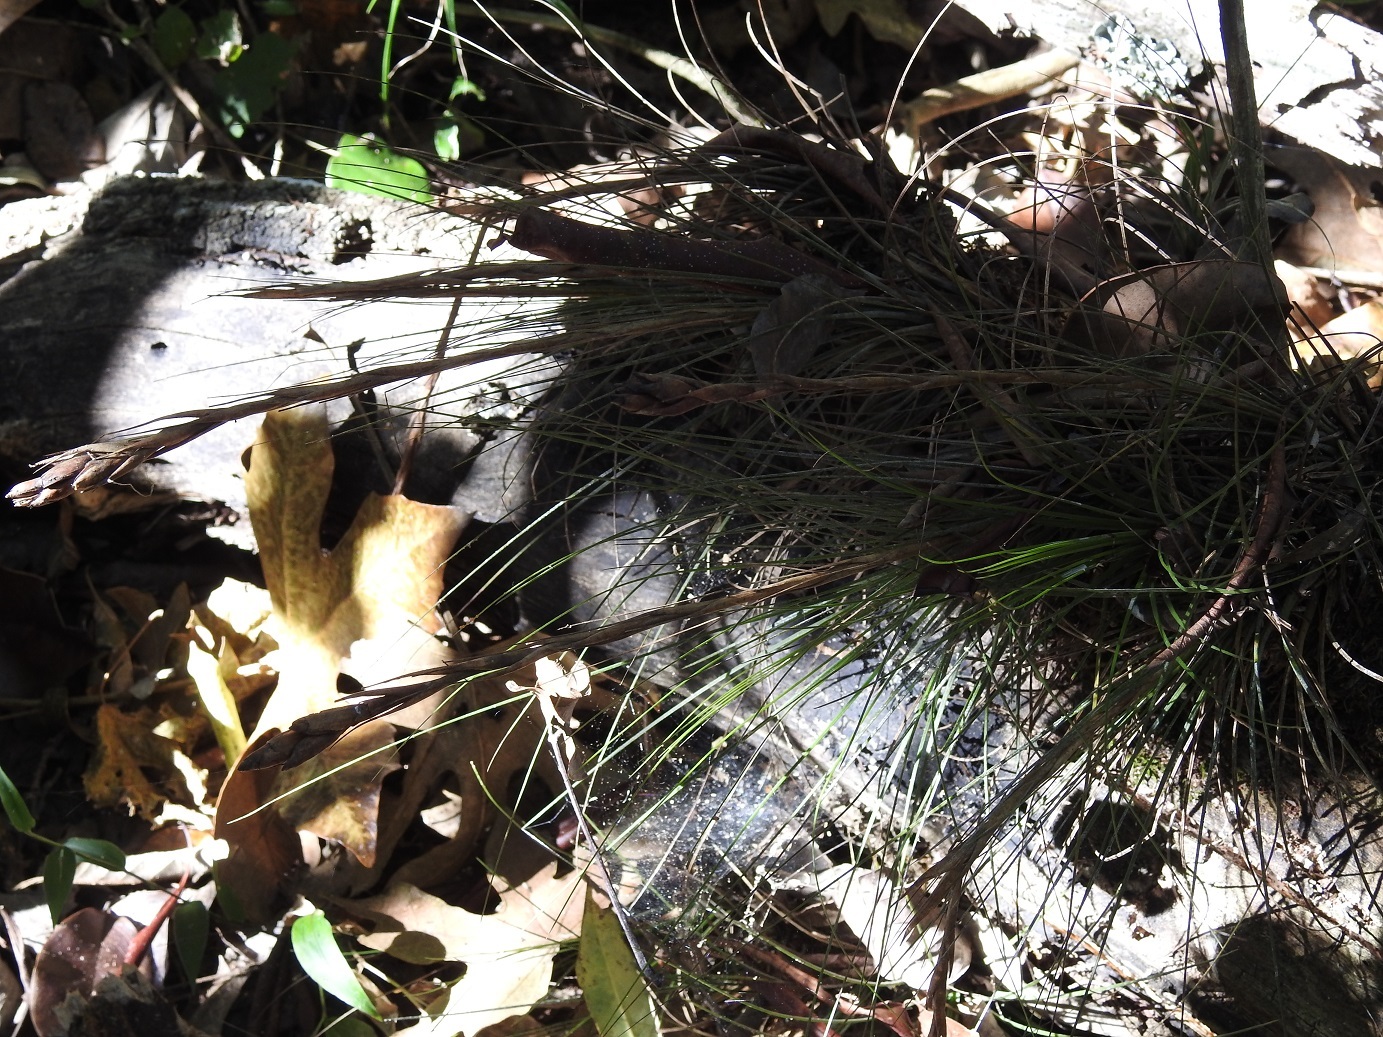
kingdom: Plantae
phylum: Tracheophyta
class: Liliopsida
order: Poales
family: Bromeliaceae
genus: Tillandsia
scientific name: Tillandsia juncea
